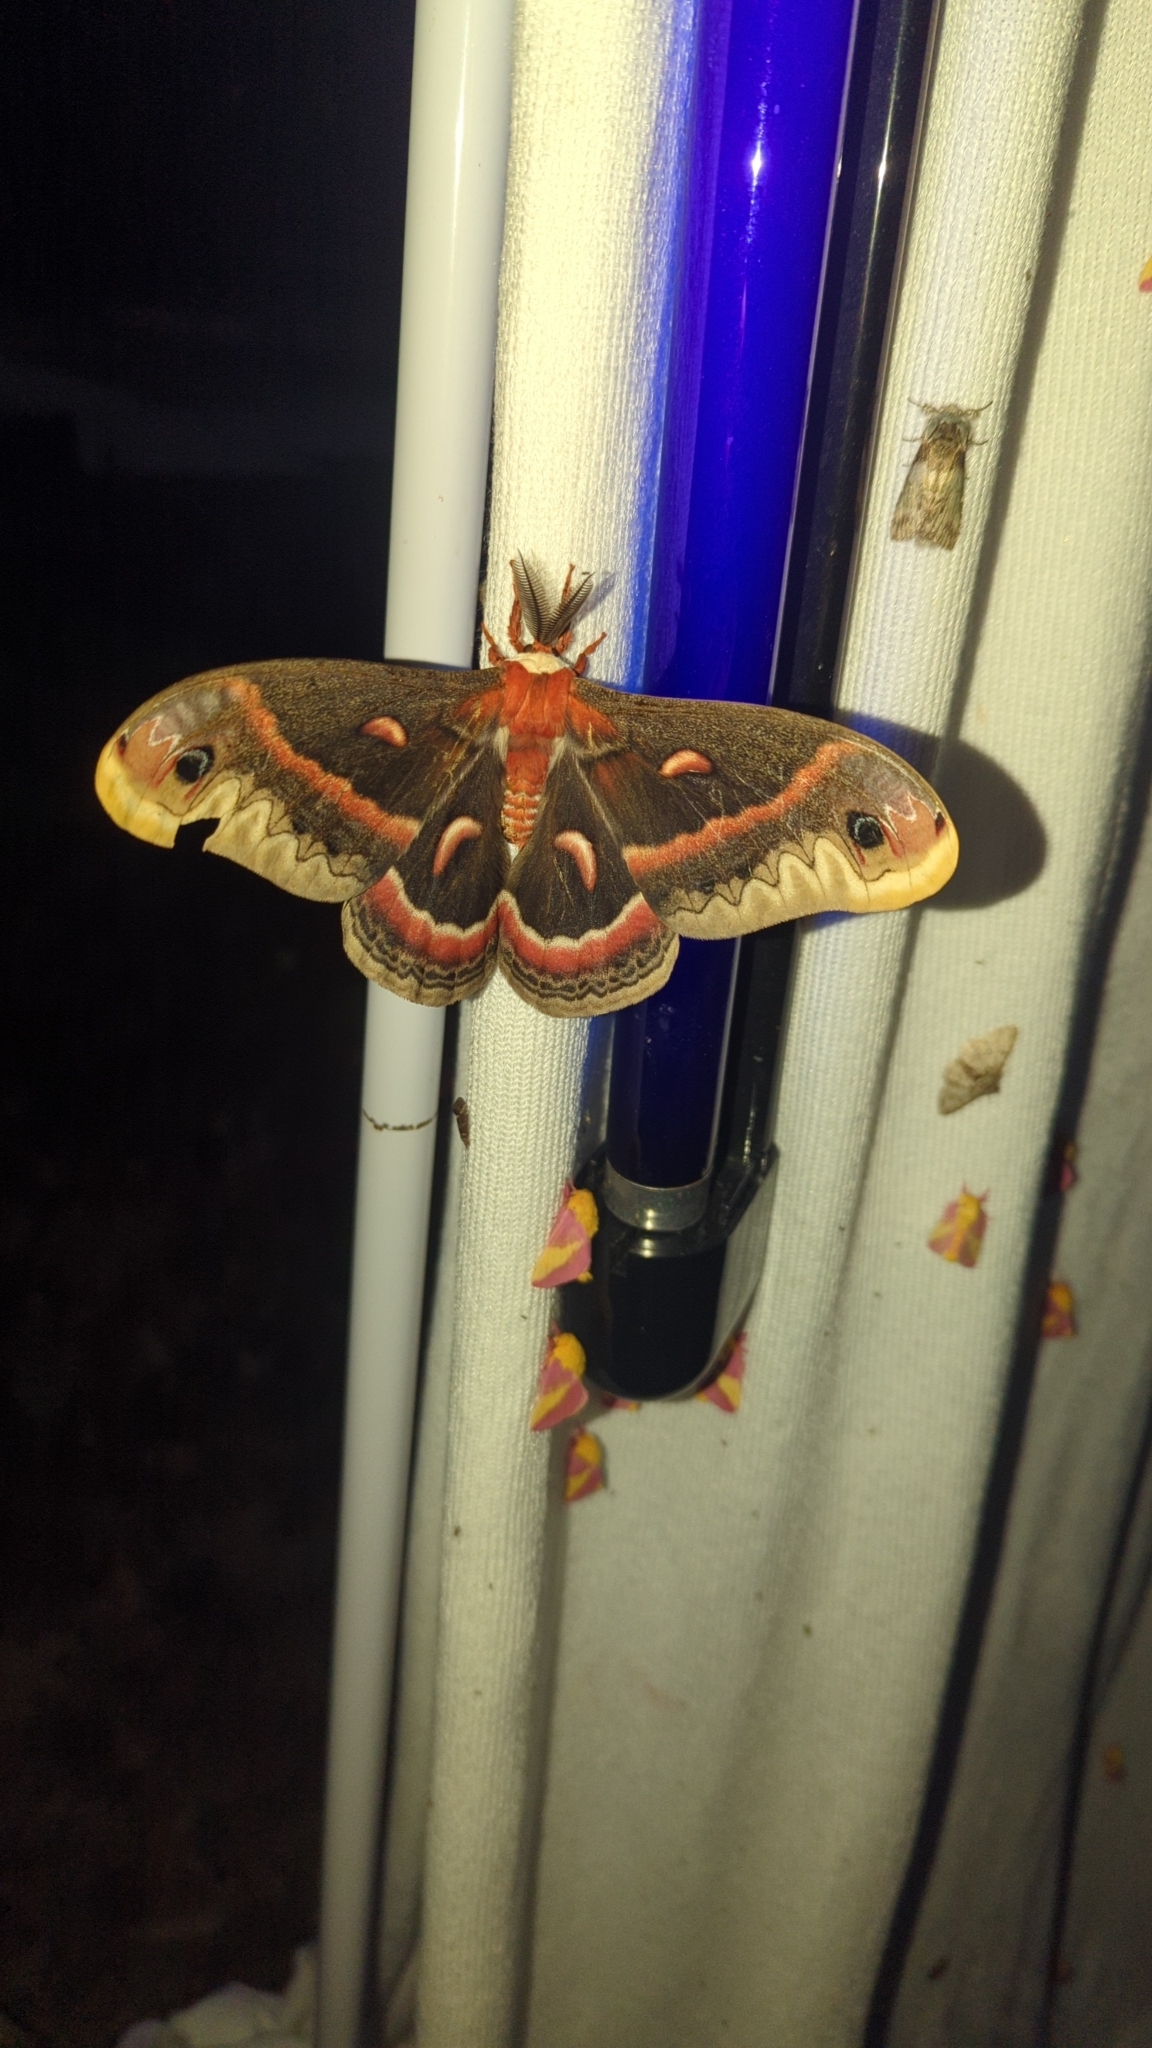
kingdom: Animalia
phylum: Arthropoda
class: Insecta
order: Lepidoptera
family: Saturniidae
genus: Hyalophora
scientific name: Hyalophora cecropia
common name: Cecropia silkmoth
